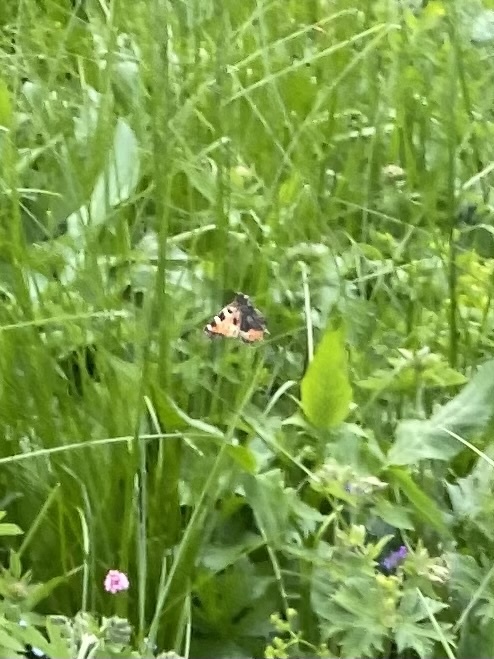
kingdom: Animalia
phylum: Arthropoda
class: Insecta
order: Lepidoptera
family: Nymphalidae
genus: Aglais
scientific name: Aglais urticae
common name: Small tortoiseshell
